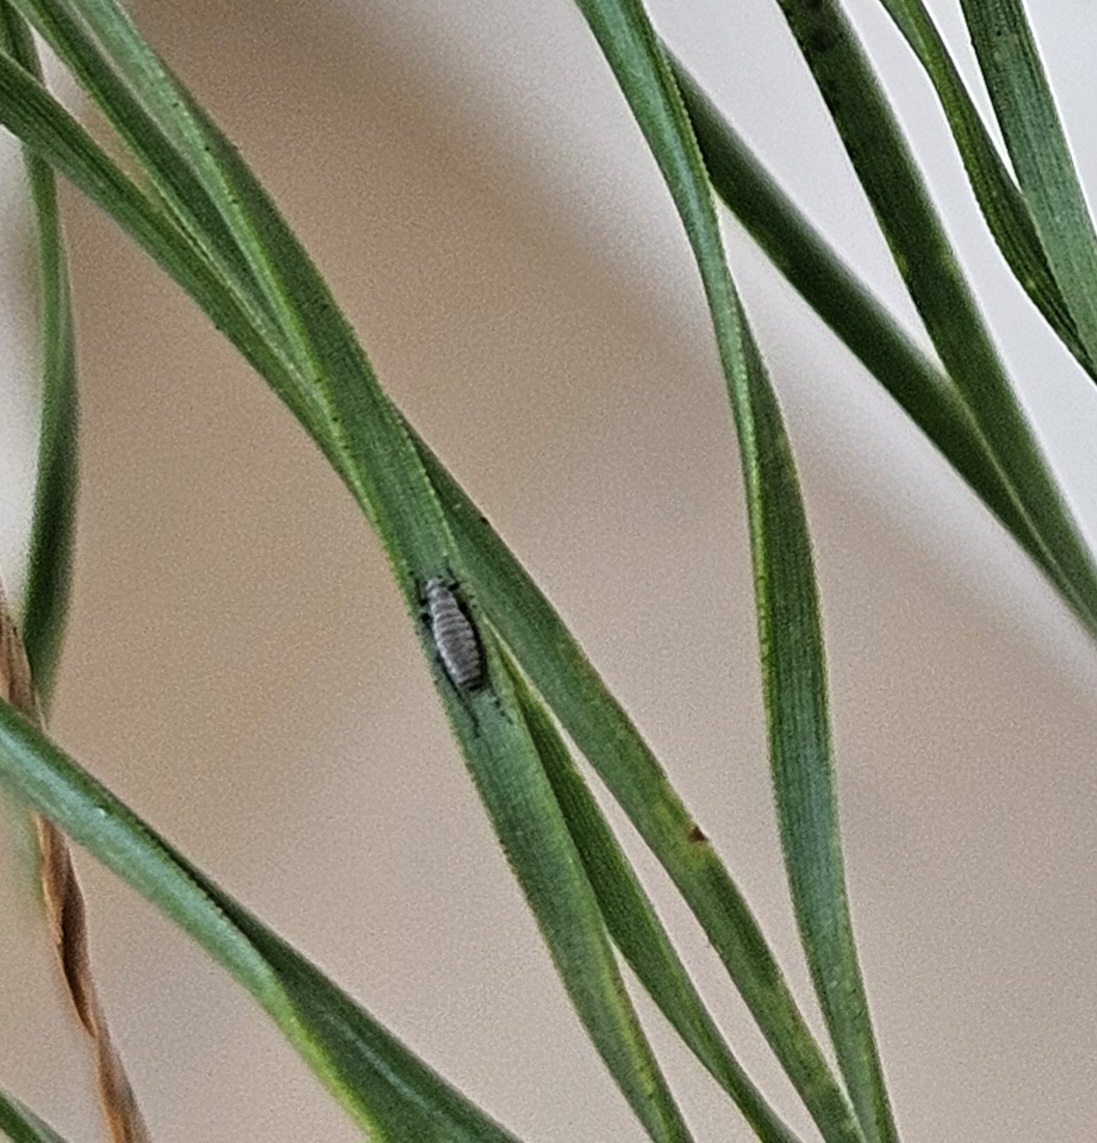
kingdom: Animalia
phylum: Arthropoda
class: Insecta
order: Hemiptera
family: Aphididae
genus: Eulachnus
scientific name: Eulachnus rileyi
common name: Active gray pine needle aphid
